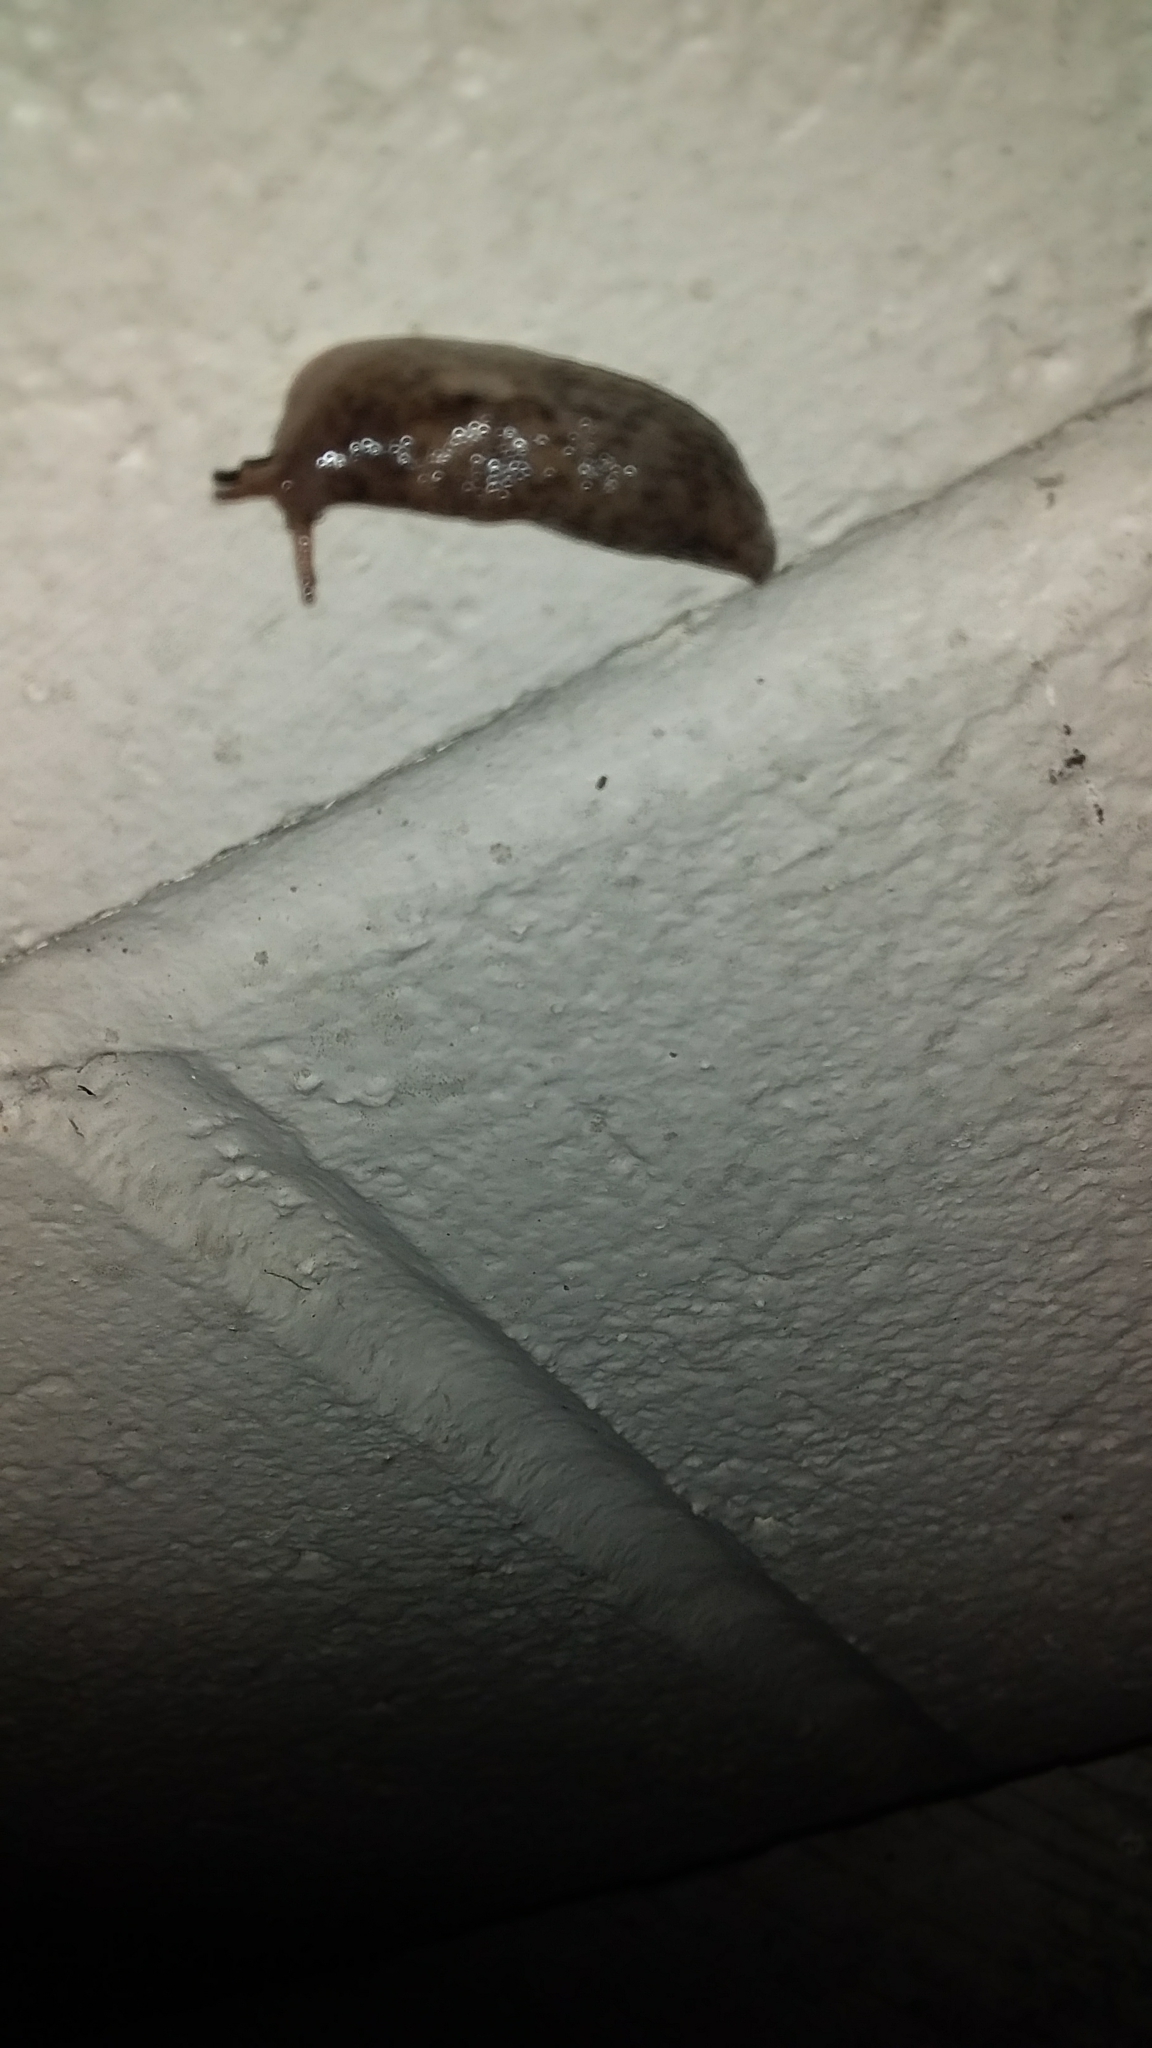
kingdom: Animalia
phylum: Mollusca
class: Gastropoda
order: Stylommatophora
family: Agriolimacidae
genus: Deroceras
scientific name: Deroceras reticulatum
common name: Gray field slug
